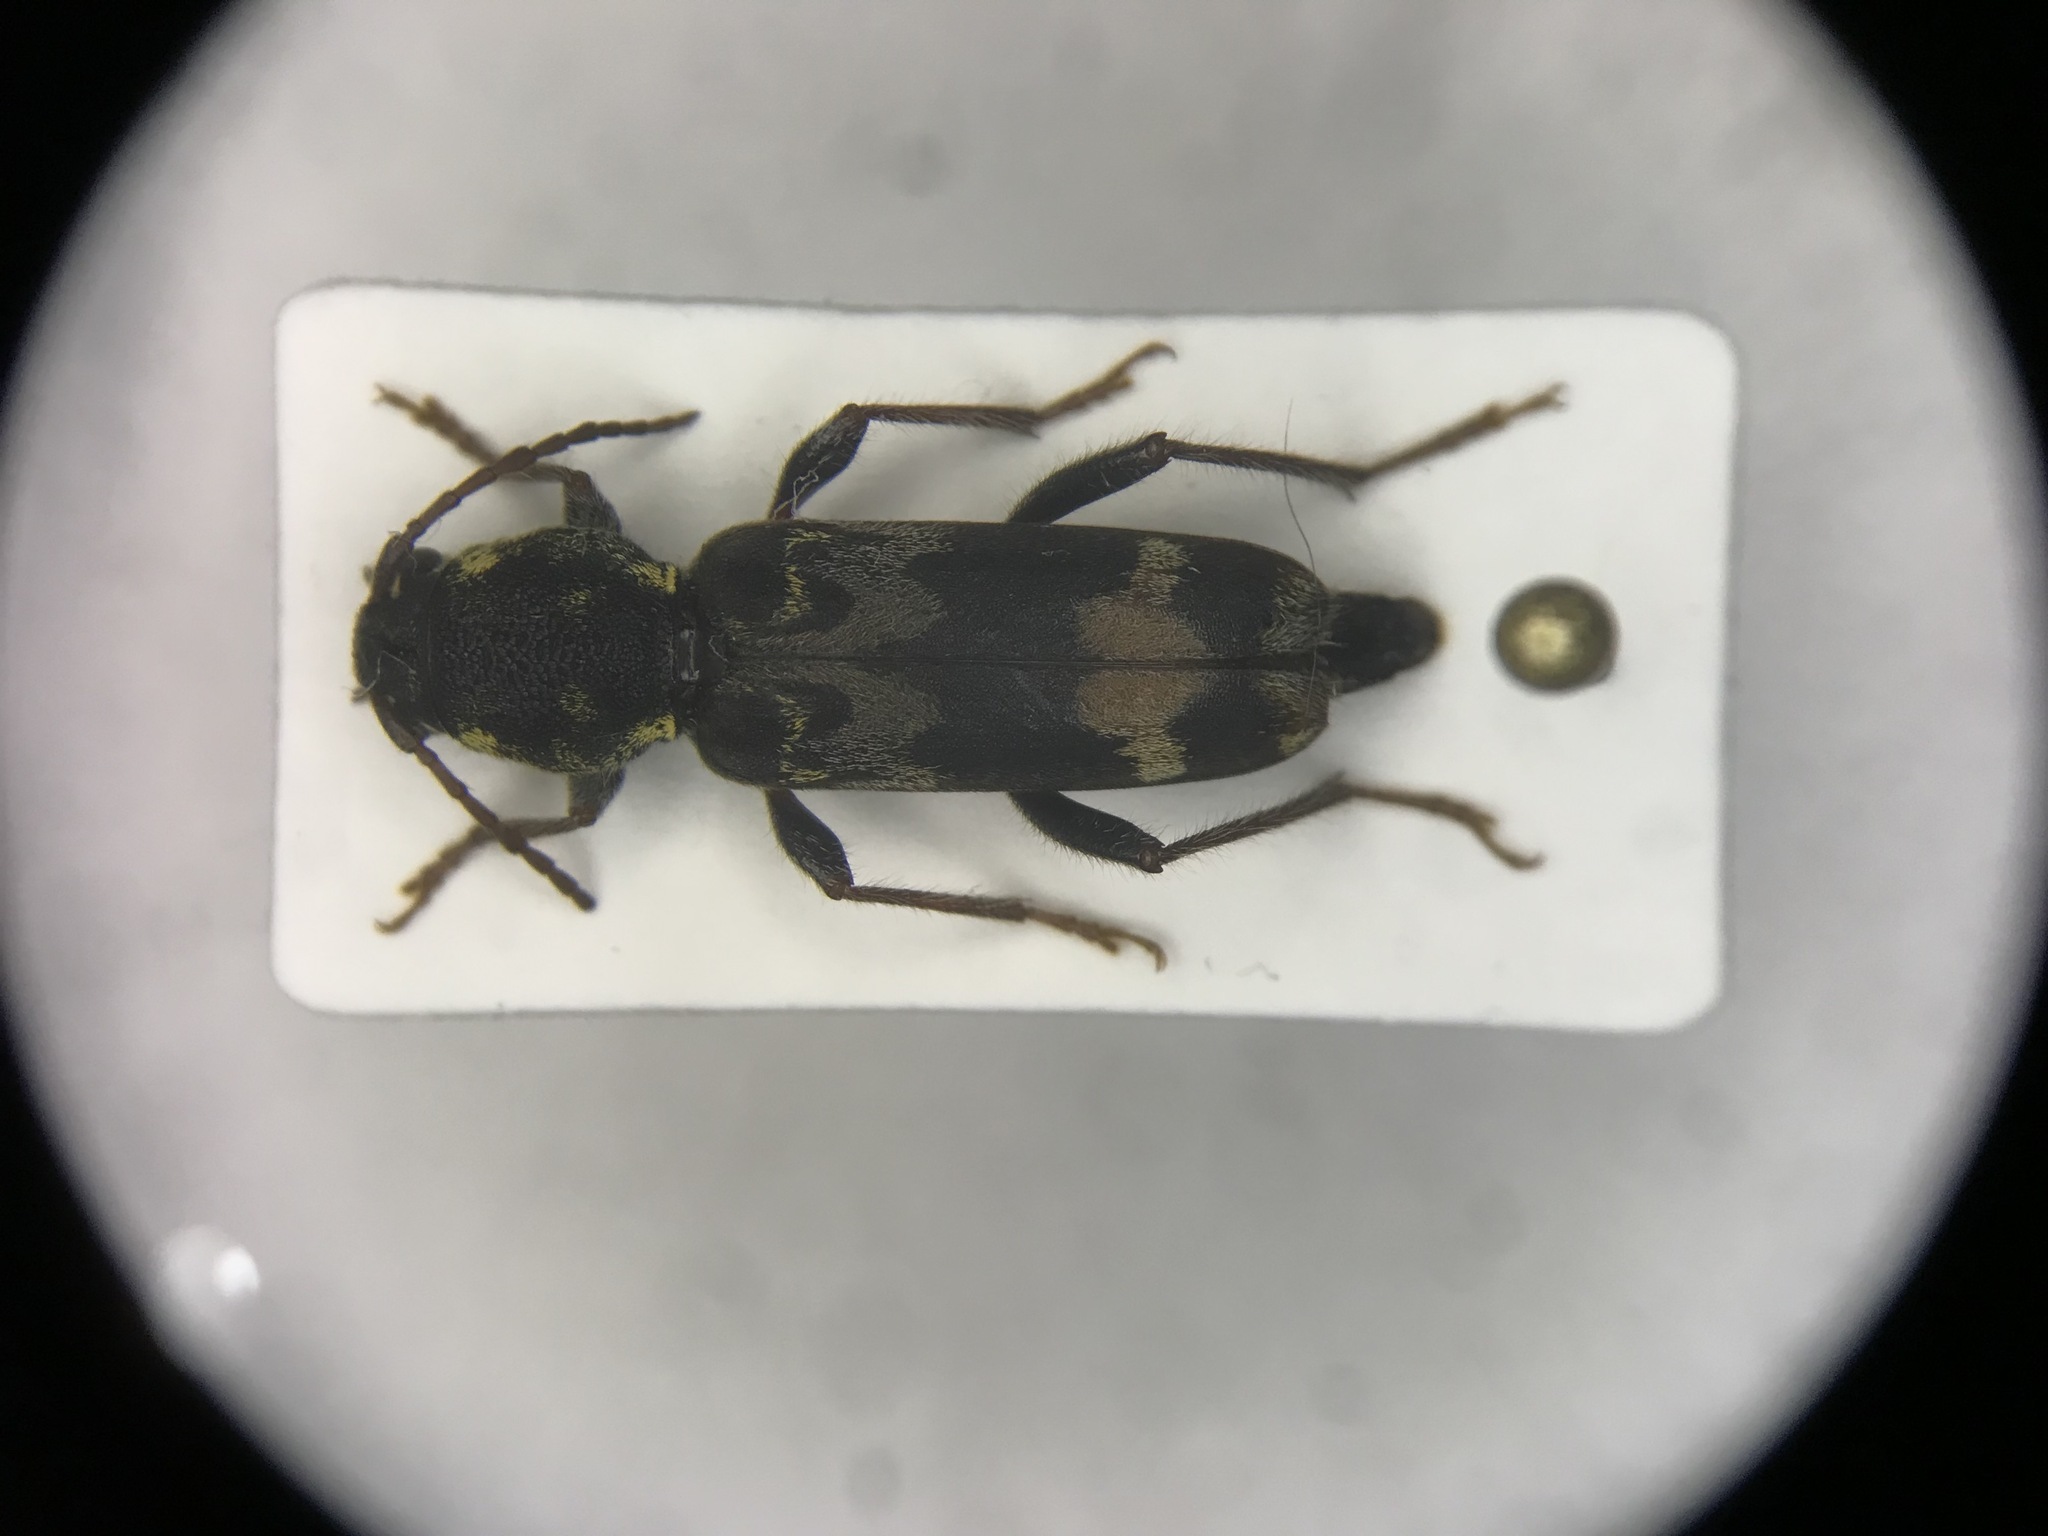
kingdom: Animalia
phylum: Arthropoda
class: Insecta
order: Coleoptera
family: Cerambycidae
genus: Xylotrechus
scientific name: Xylotrechus colonus
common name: Long-horned beetle
